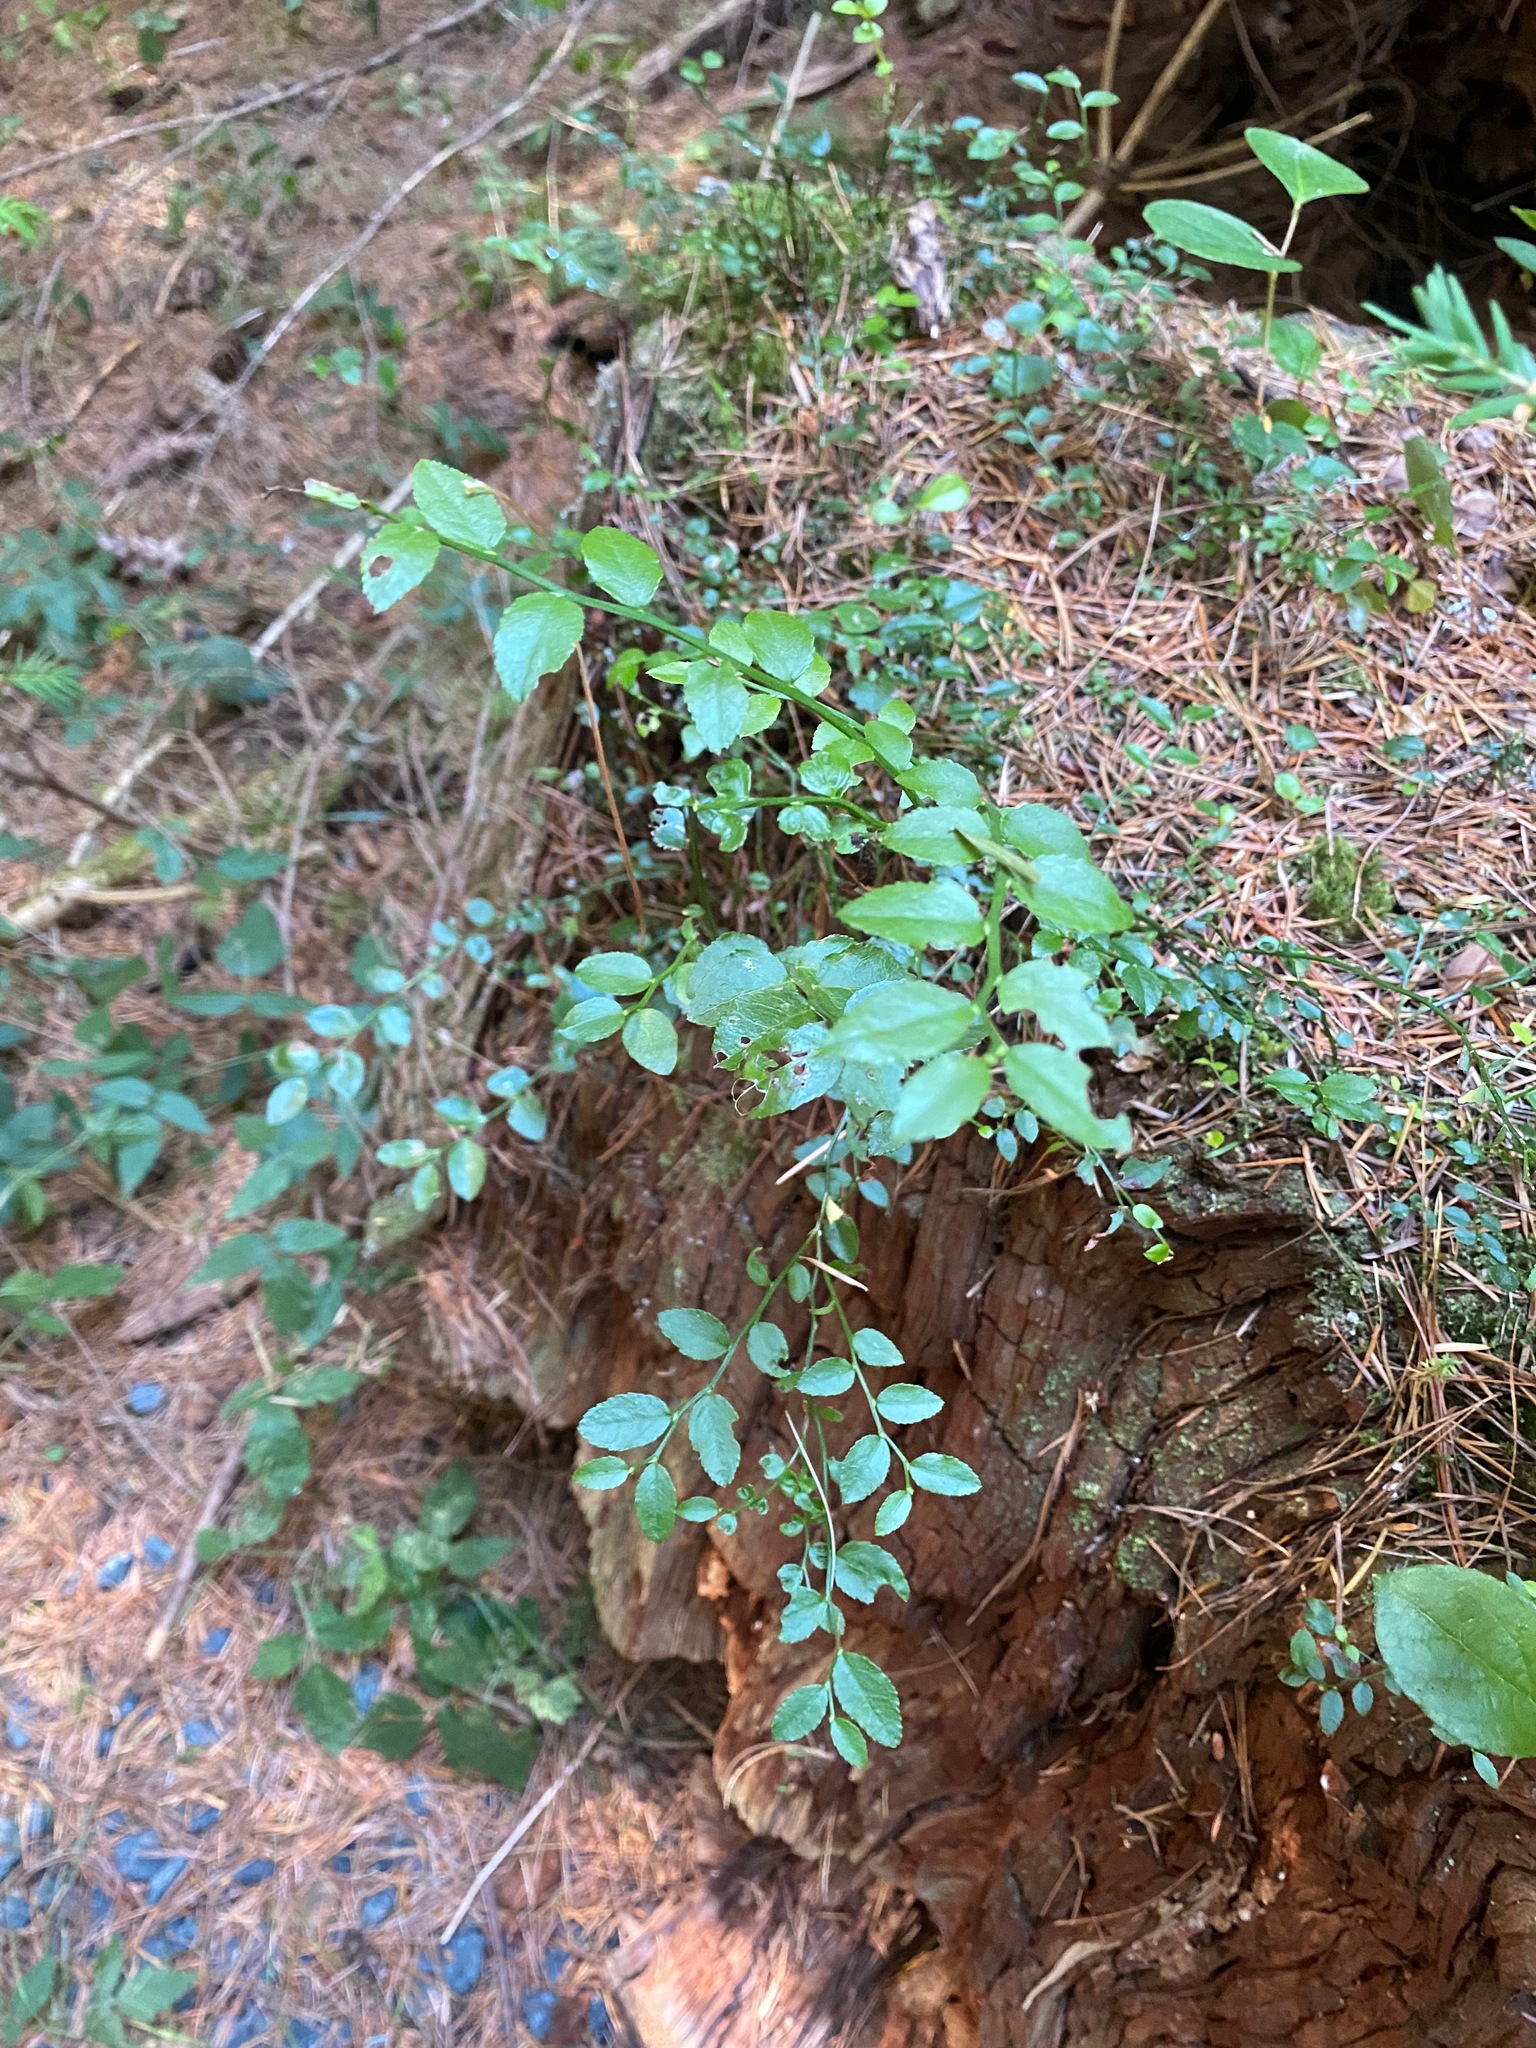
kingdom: Plantae
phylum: Tracheophyta
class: Magnoliopsida
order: Ericales
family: Ericaceae
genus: Vaccinium
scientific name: Vaccinium parvifolium
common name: Red-huckleberry
